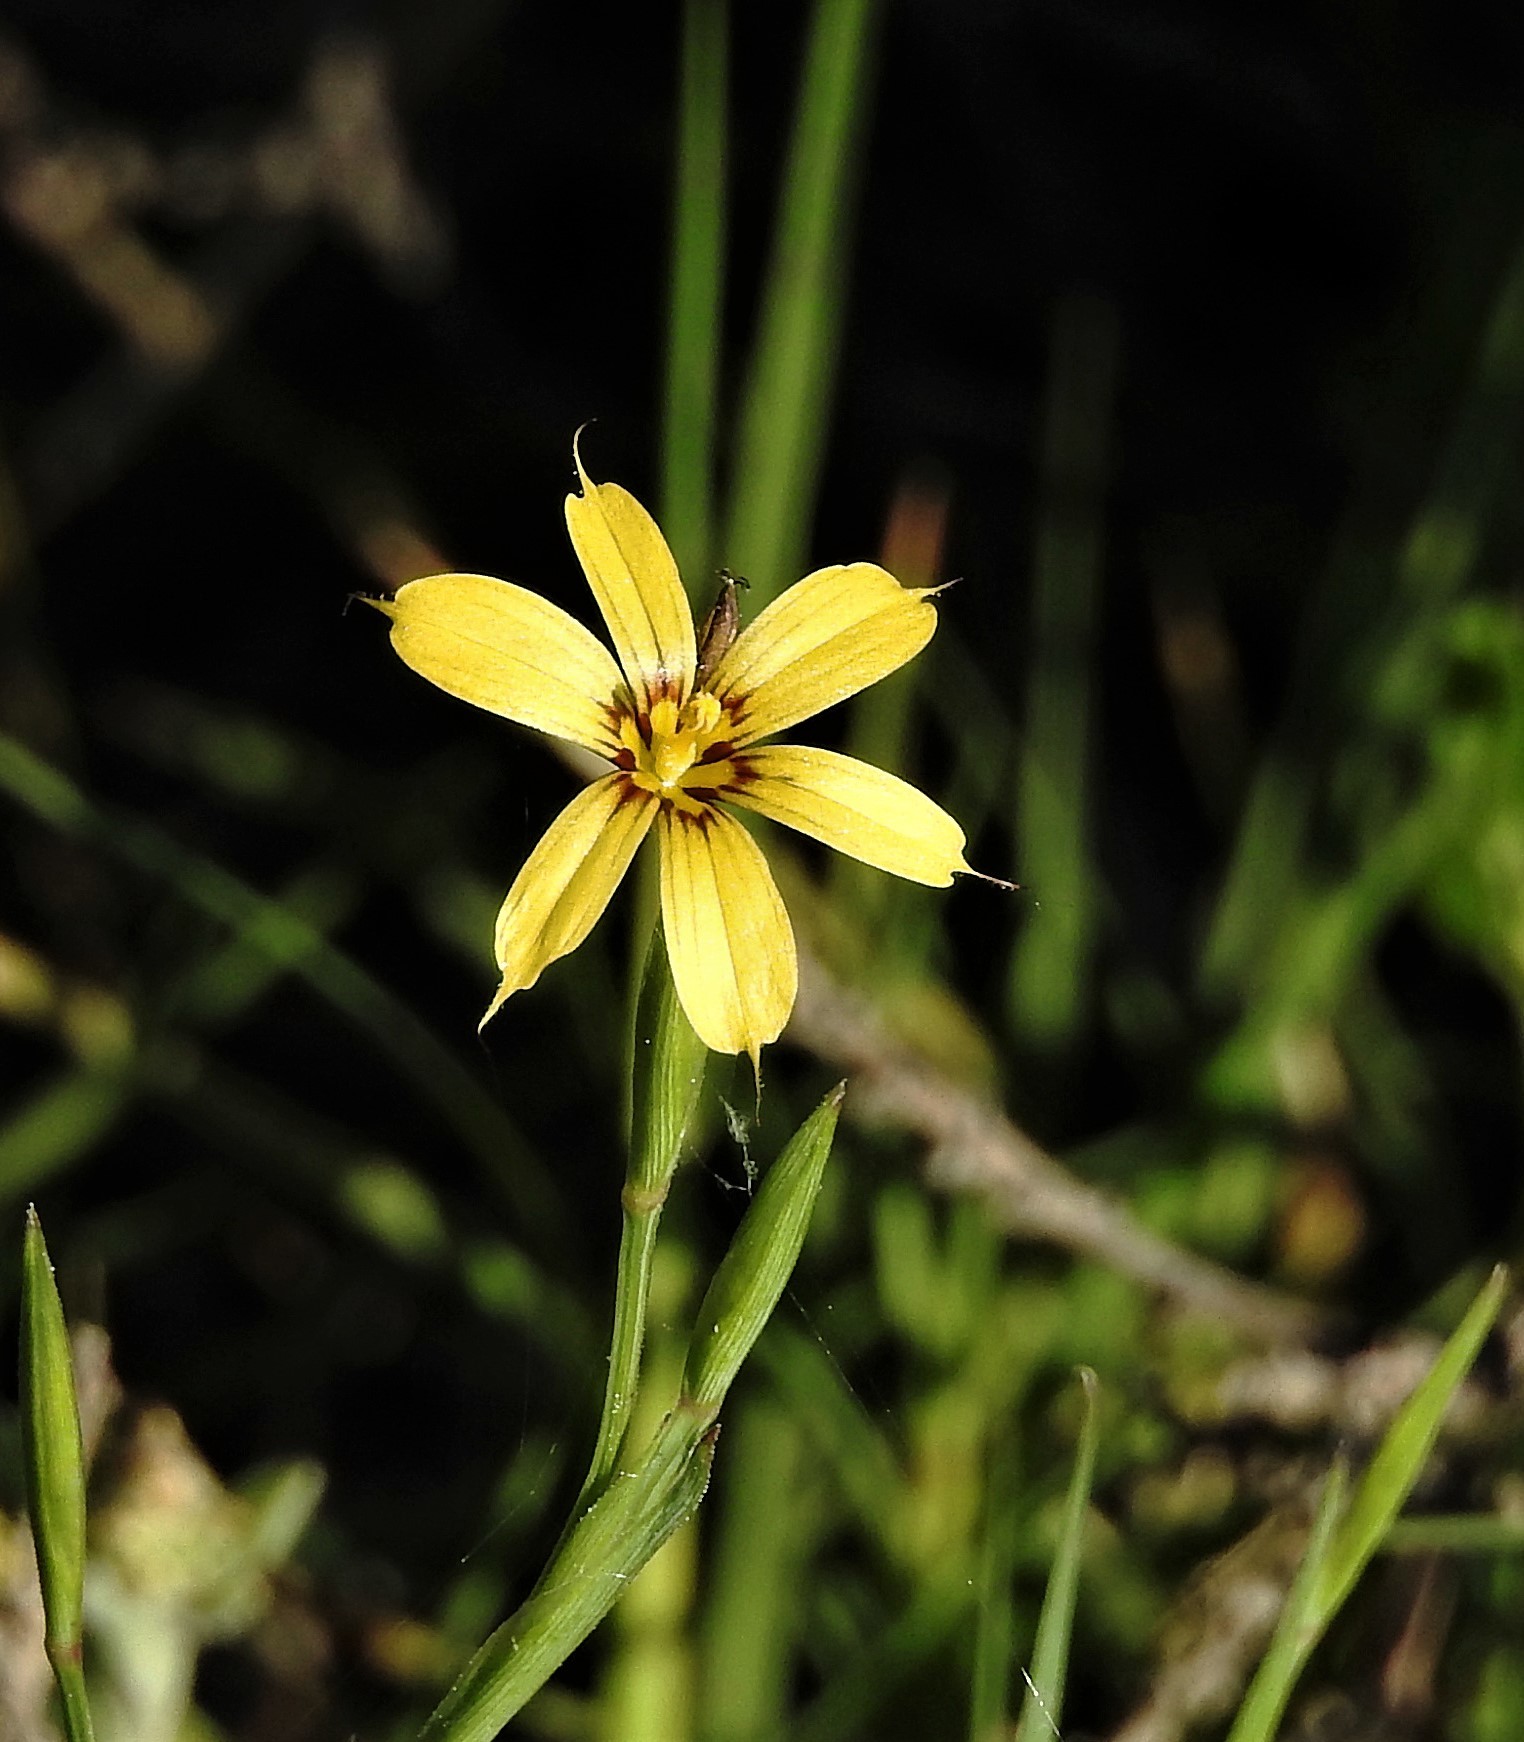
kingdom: Plantae
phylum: Tracheophyta
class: Liliopsida
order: Asparagales
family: Iridaceae
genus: Sisyrinchium
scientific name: Sisyrinchium pachyrhizum
